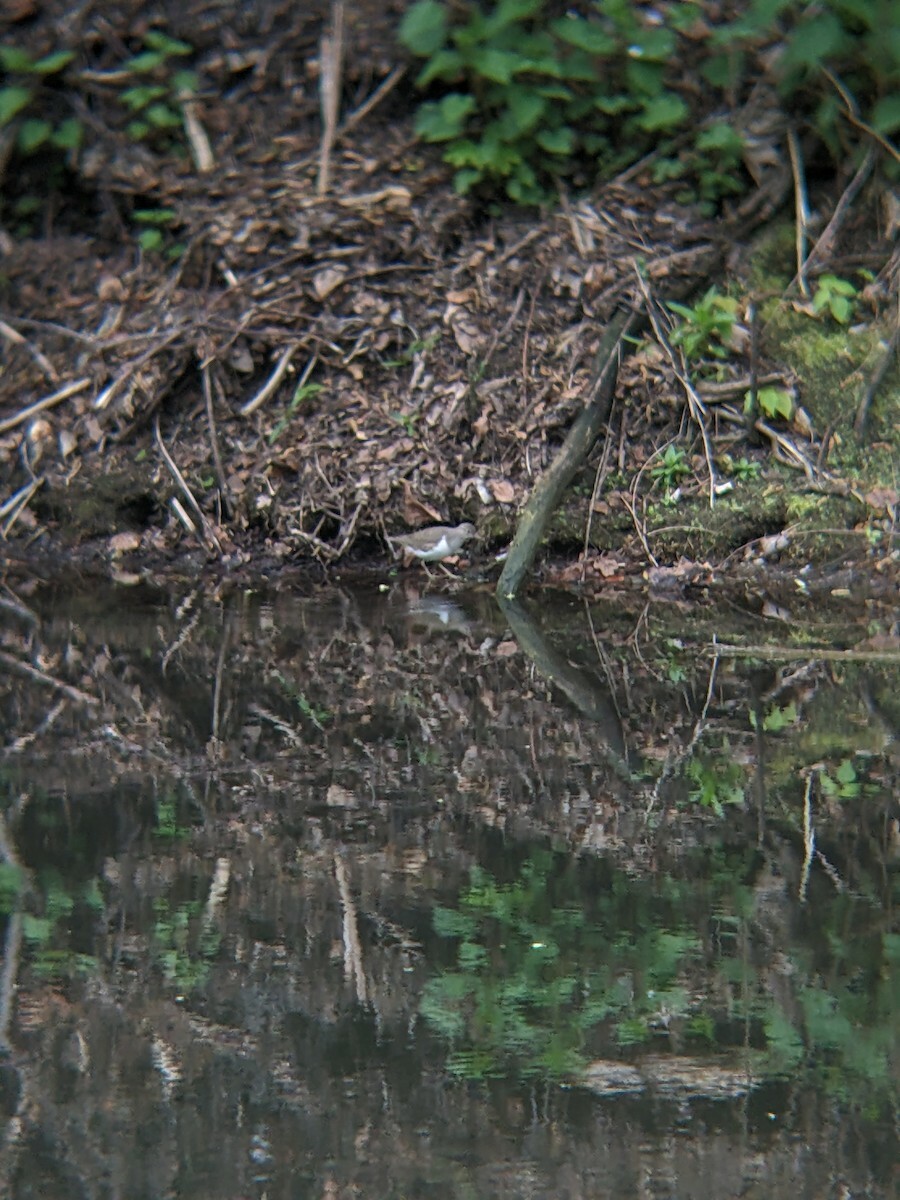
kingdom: Animalia
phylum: Chordata
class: Aves
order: Charadriiformes
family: Scolopacidae
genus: Actitis
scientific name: Actitis hypoleucos
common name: Common sandpiper
